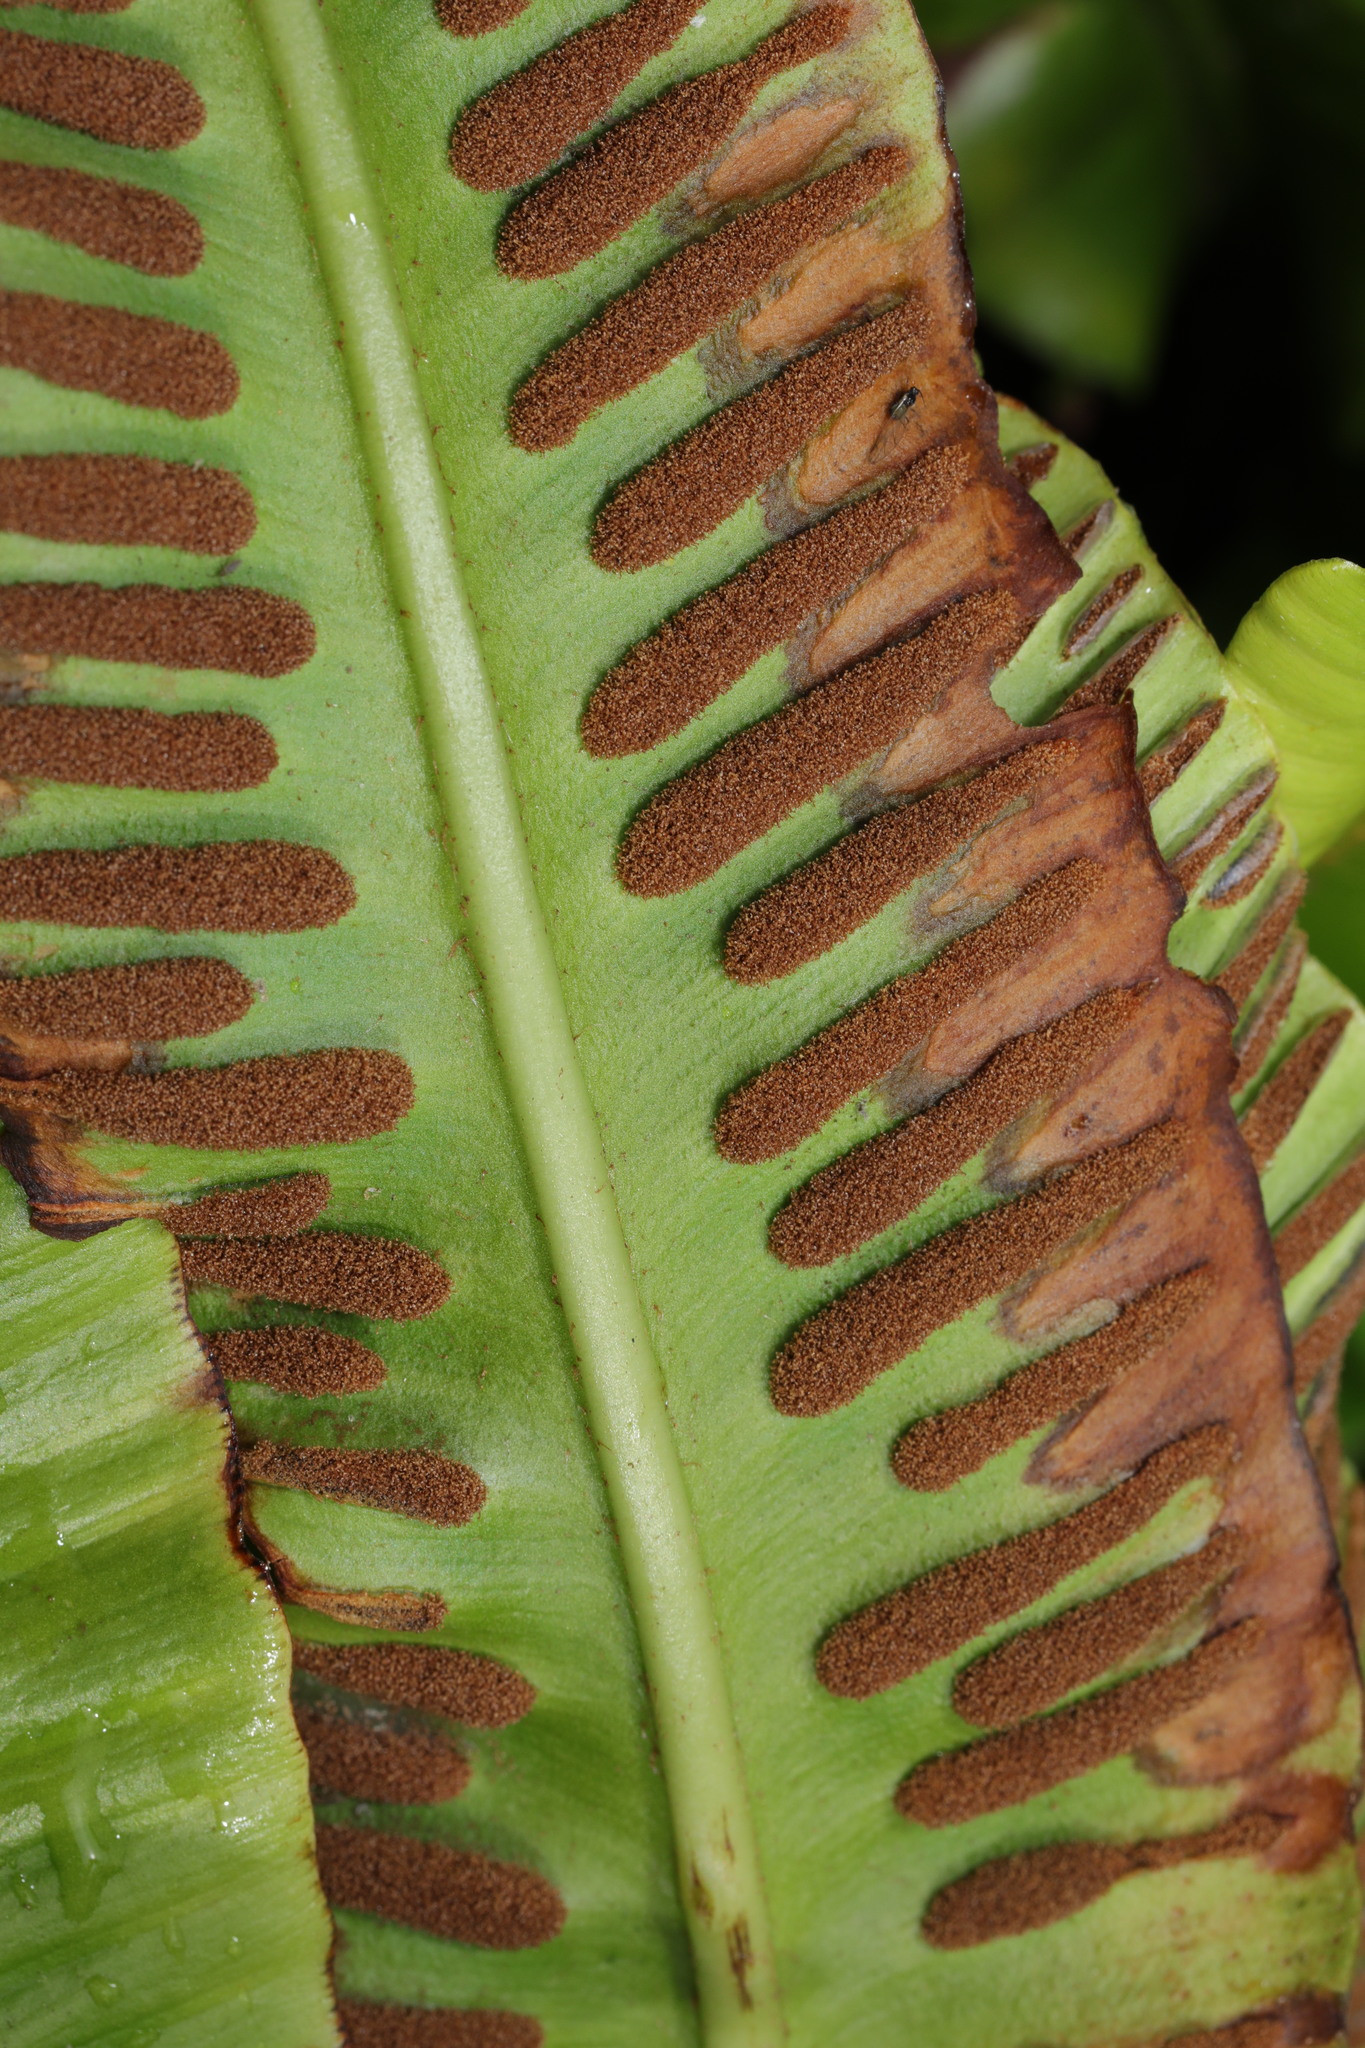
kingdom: Plantae
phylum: Tracheophyta
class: Polypodiopsida
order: Polypodiales
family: Aspleniaceae
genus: Asplenium
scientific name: Asplenium scolopendrium
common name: Hart's-tongue fern
